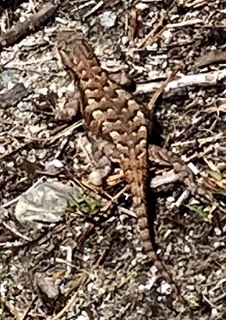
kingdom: Animalia
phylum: Chordata
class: Squamata
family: Phrynosomatidae
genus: Sceloporus
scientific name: Sceloporus undulatus
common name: Eastern fence lizard
